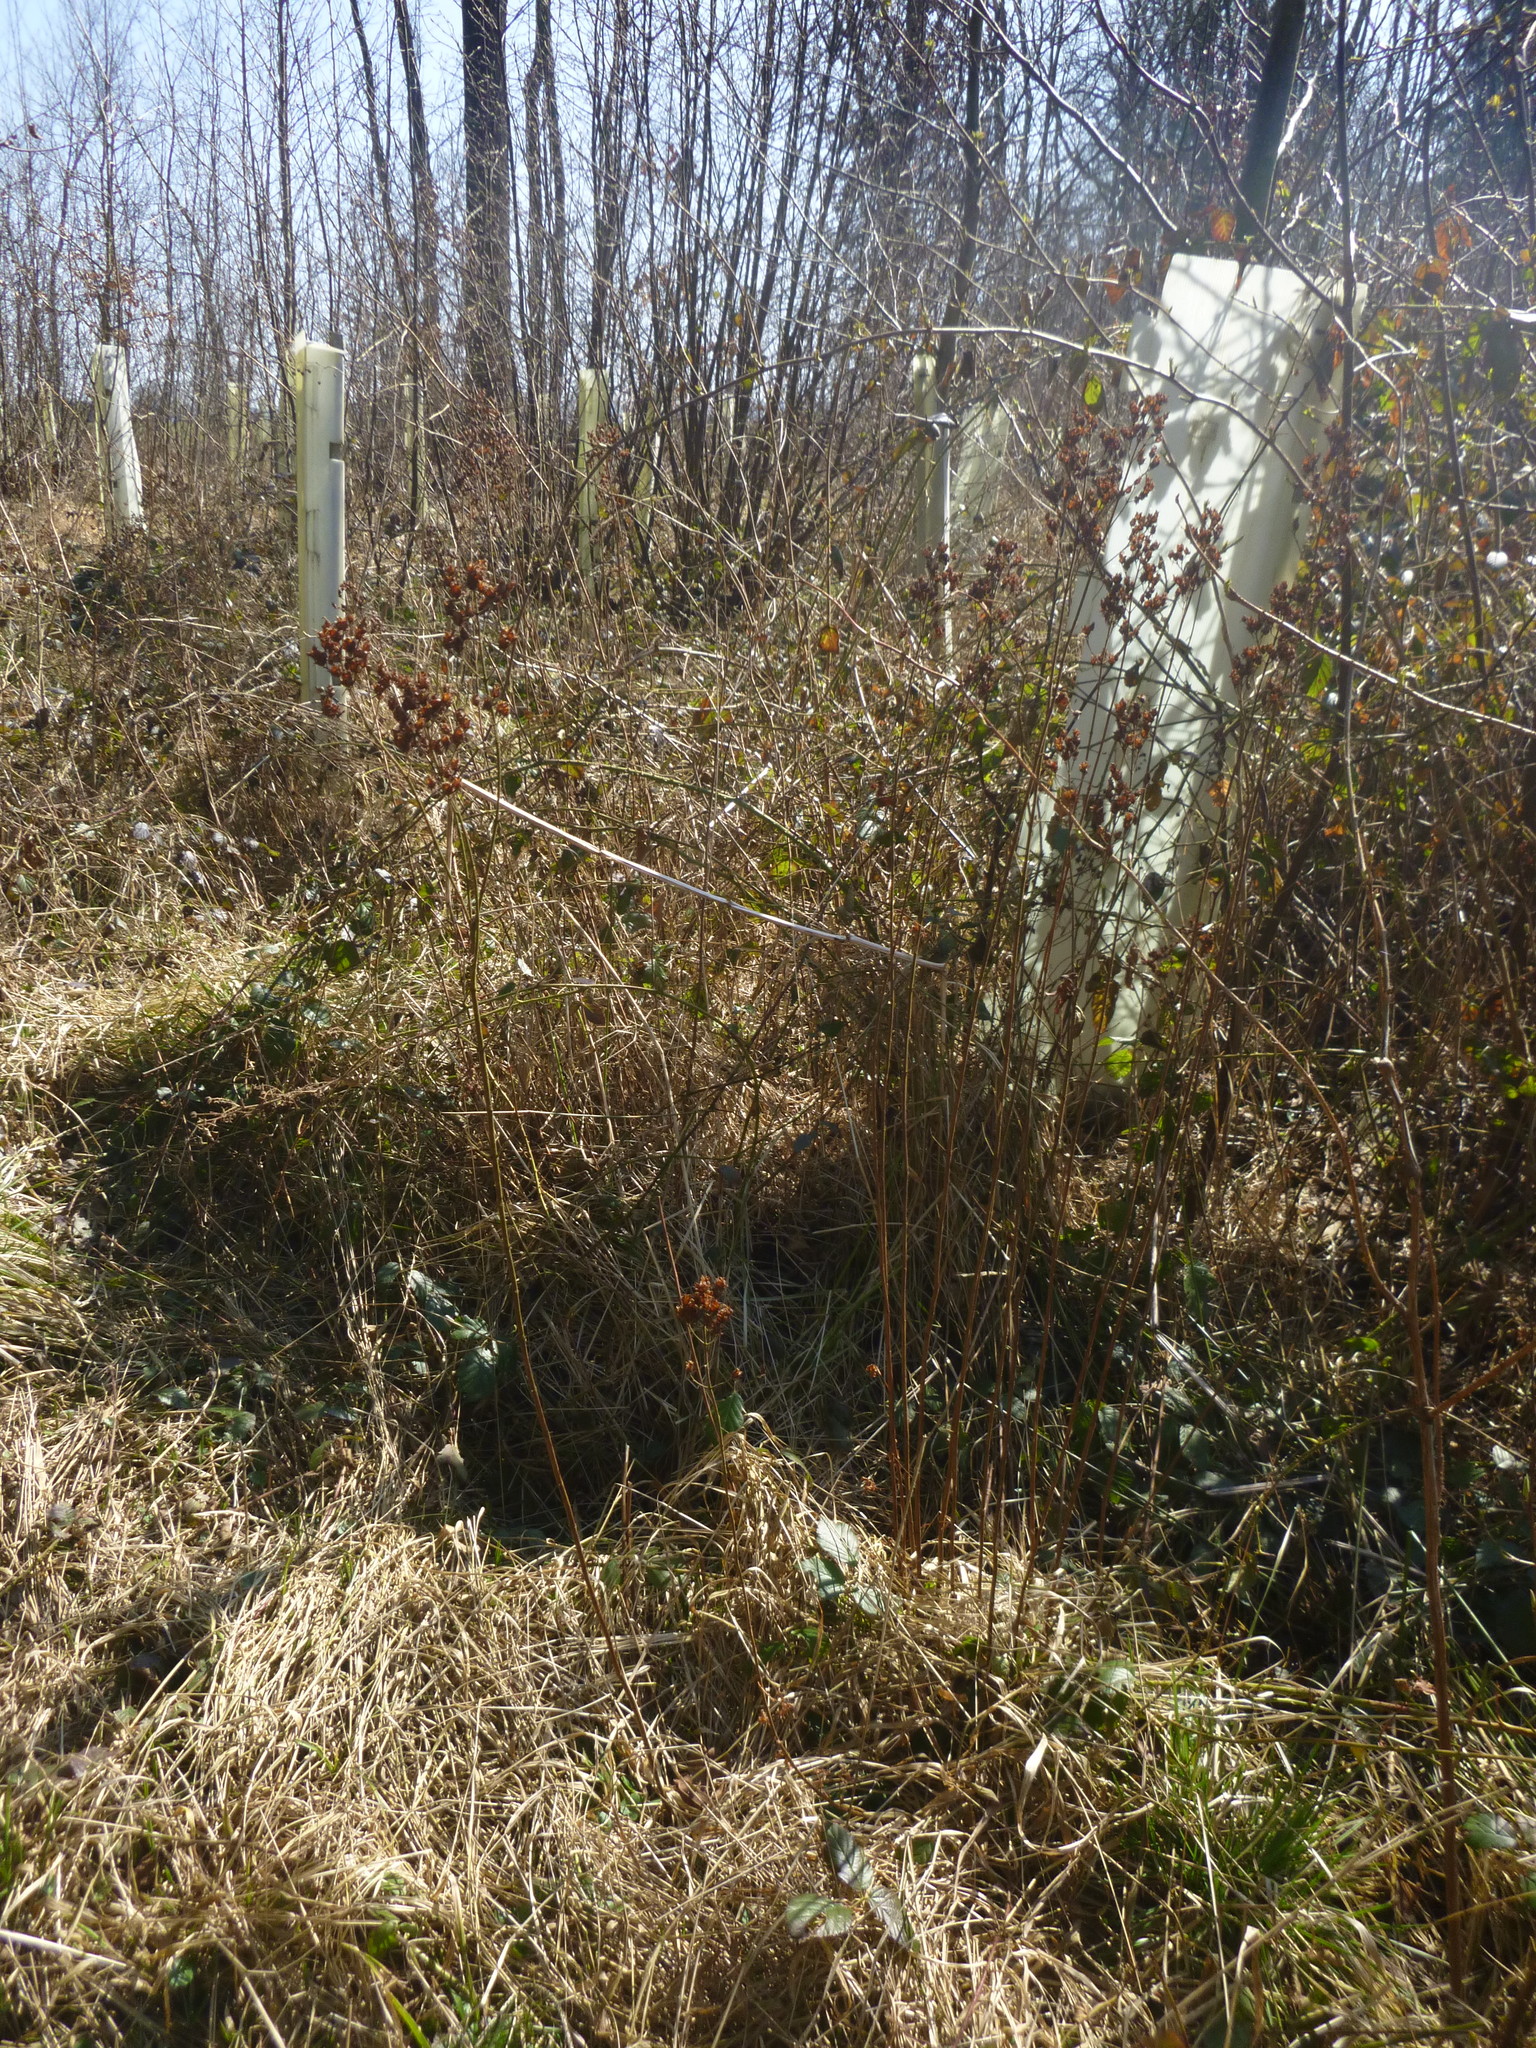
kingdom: Plantae
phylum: Tracheophyta
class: Magnoliopsida
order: Malpighiales
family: Hypericaceae
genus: Hypericum
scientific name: Hypericum hirsutum
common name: Hairy st. john's-wort
